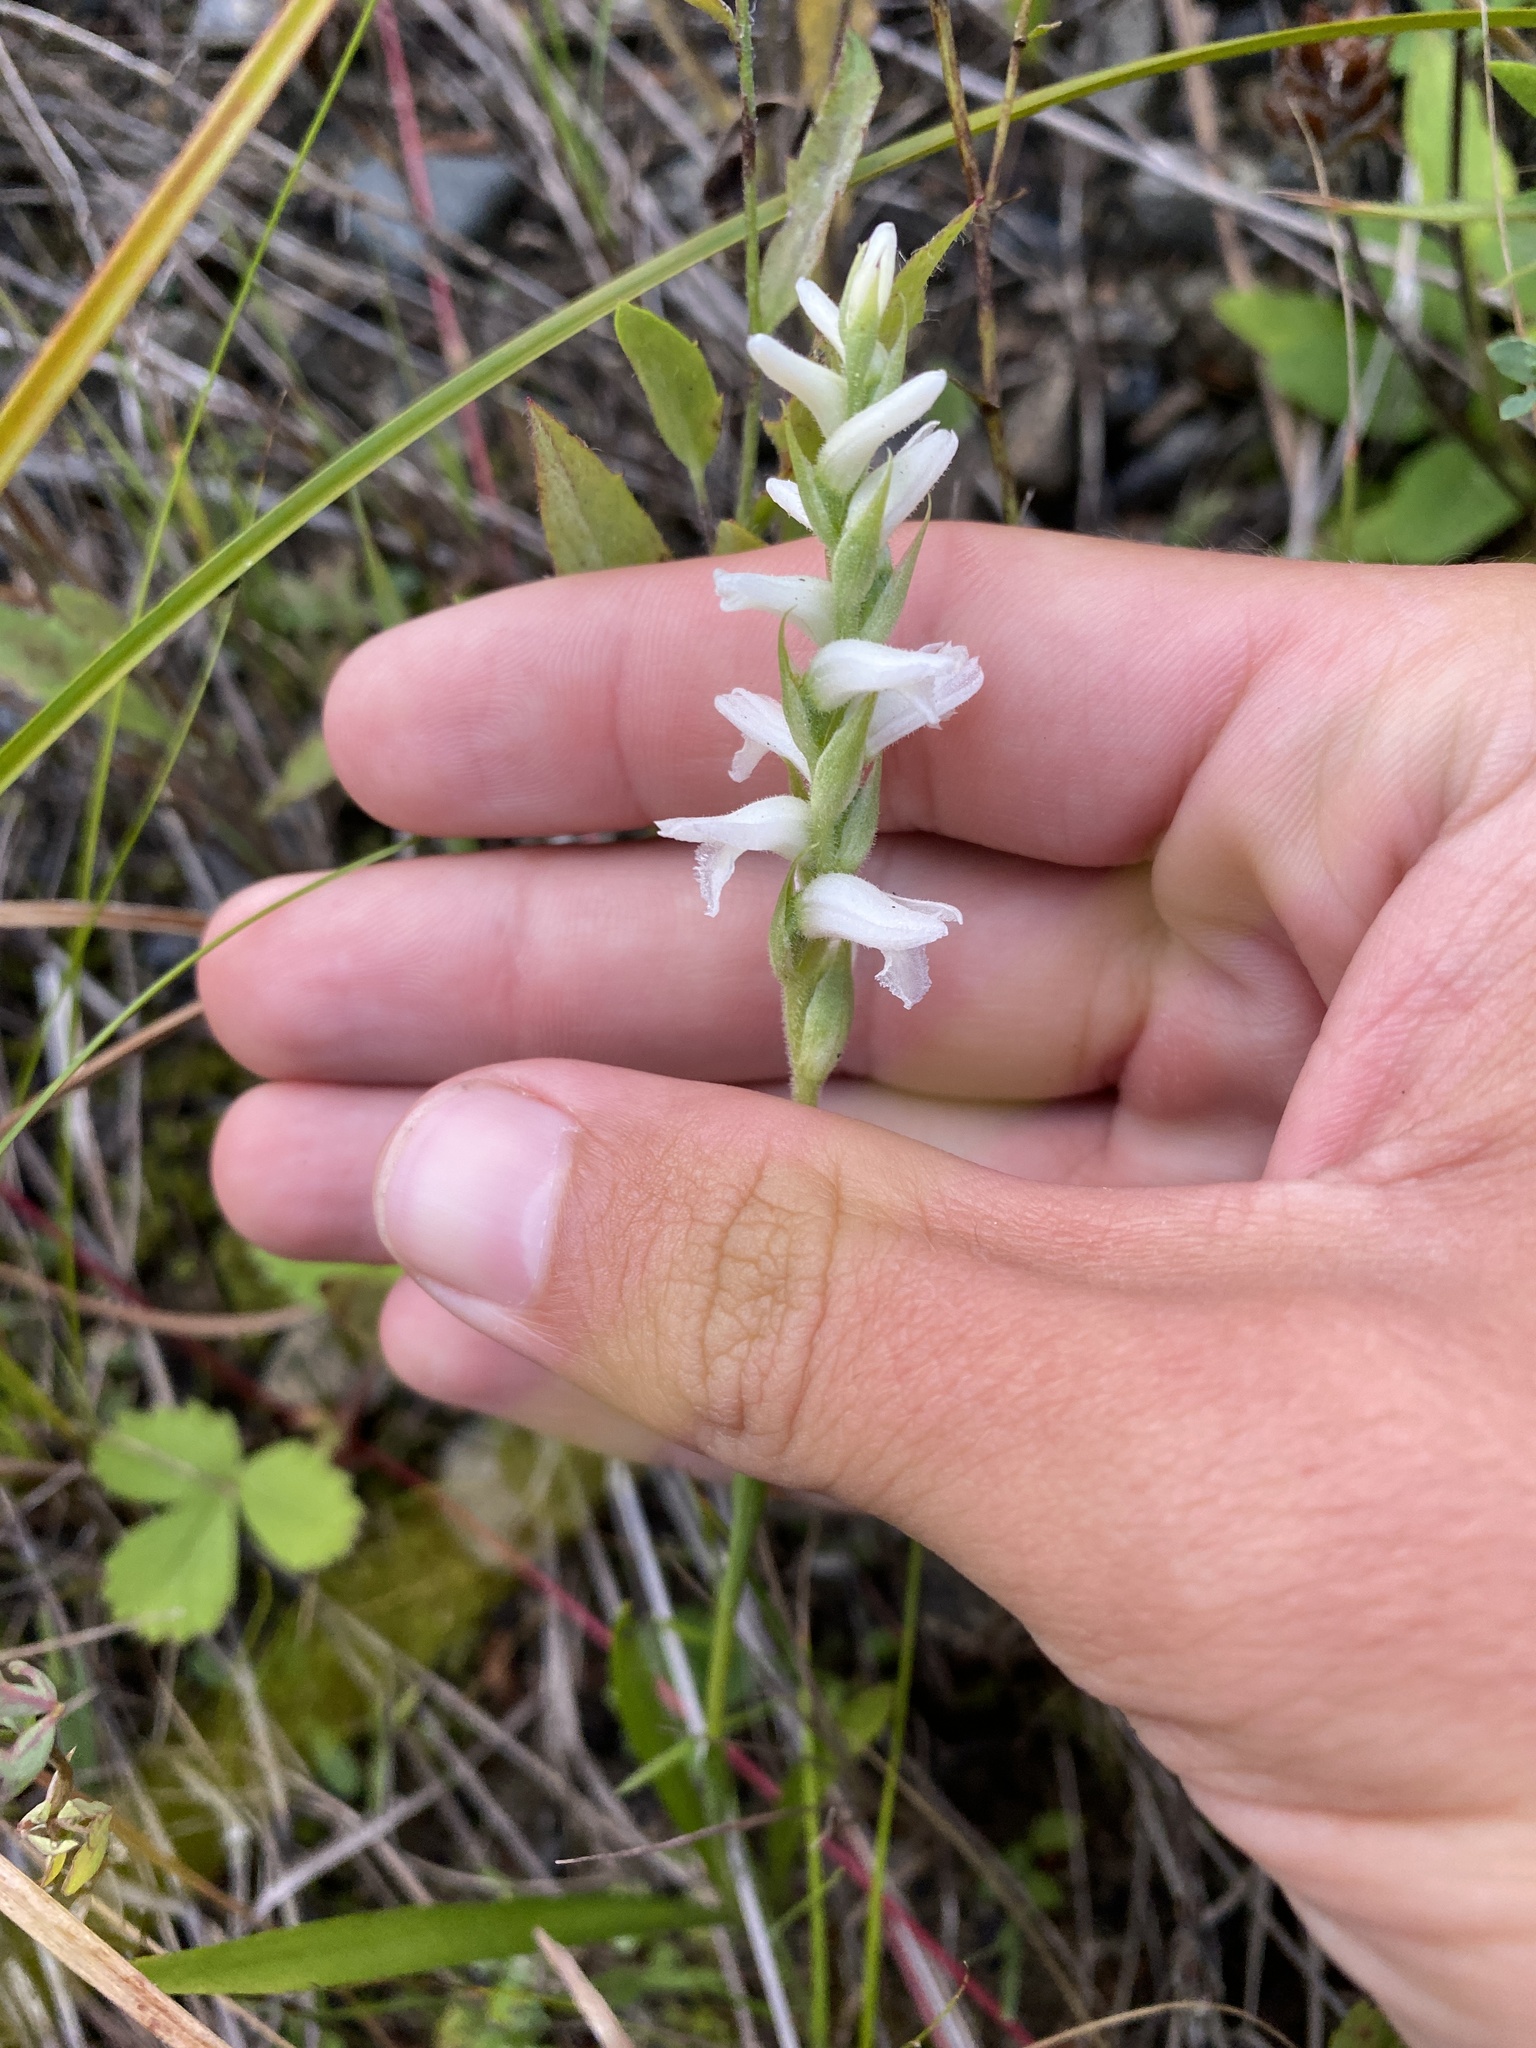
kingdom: Plantae
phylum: Tracheophyta
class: Liliopsida
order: Asparagales
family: Orchidaceae
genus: Spiranthes
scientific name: Spiranthes incurva
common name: Sphinx ladies'-tresses
